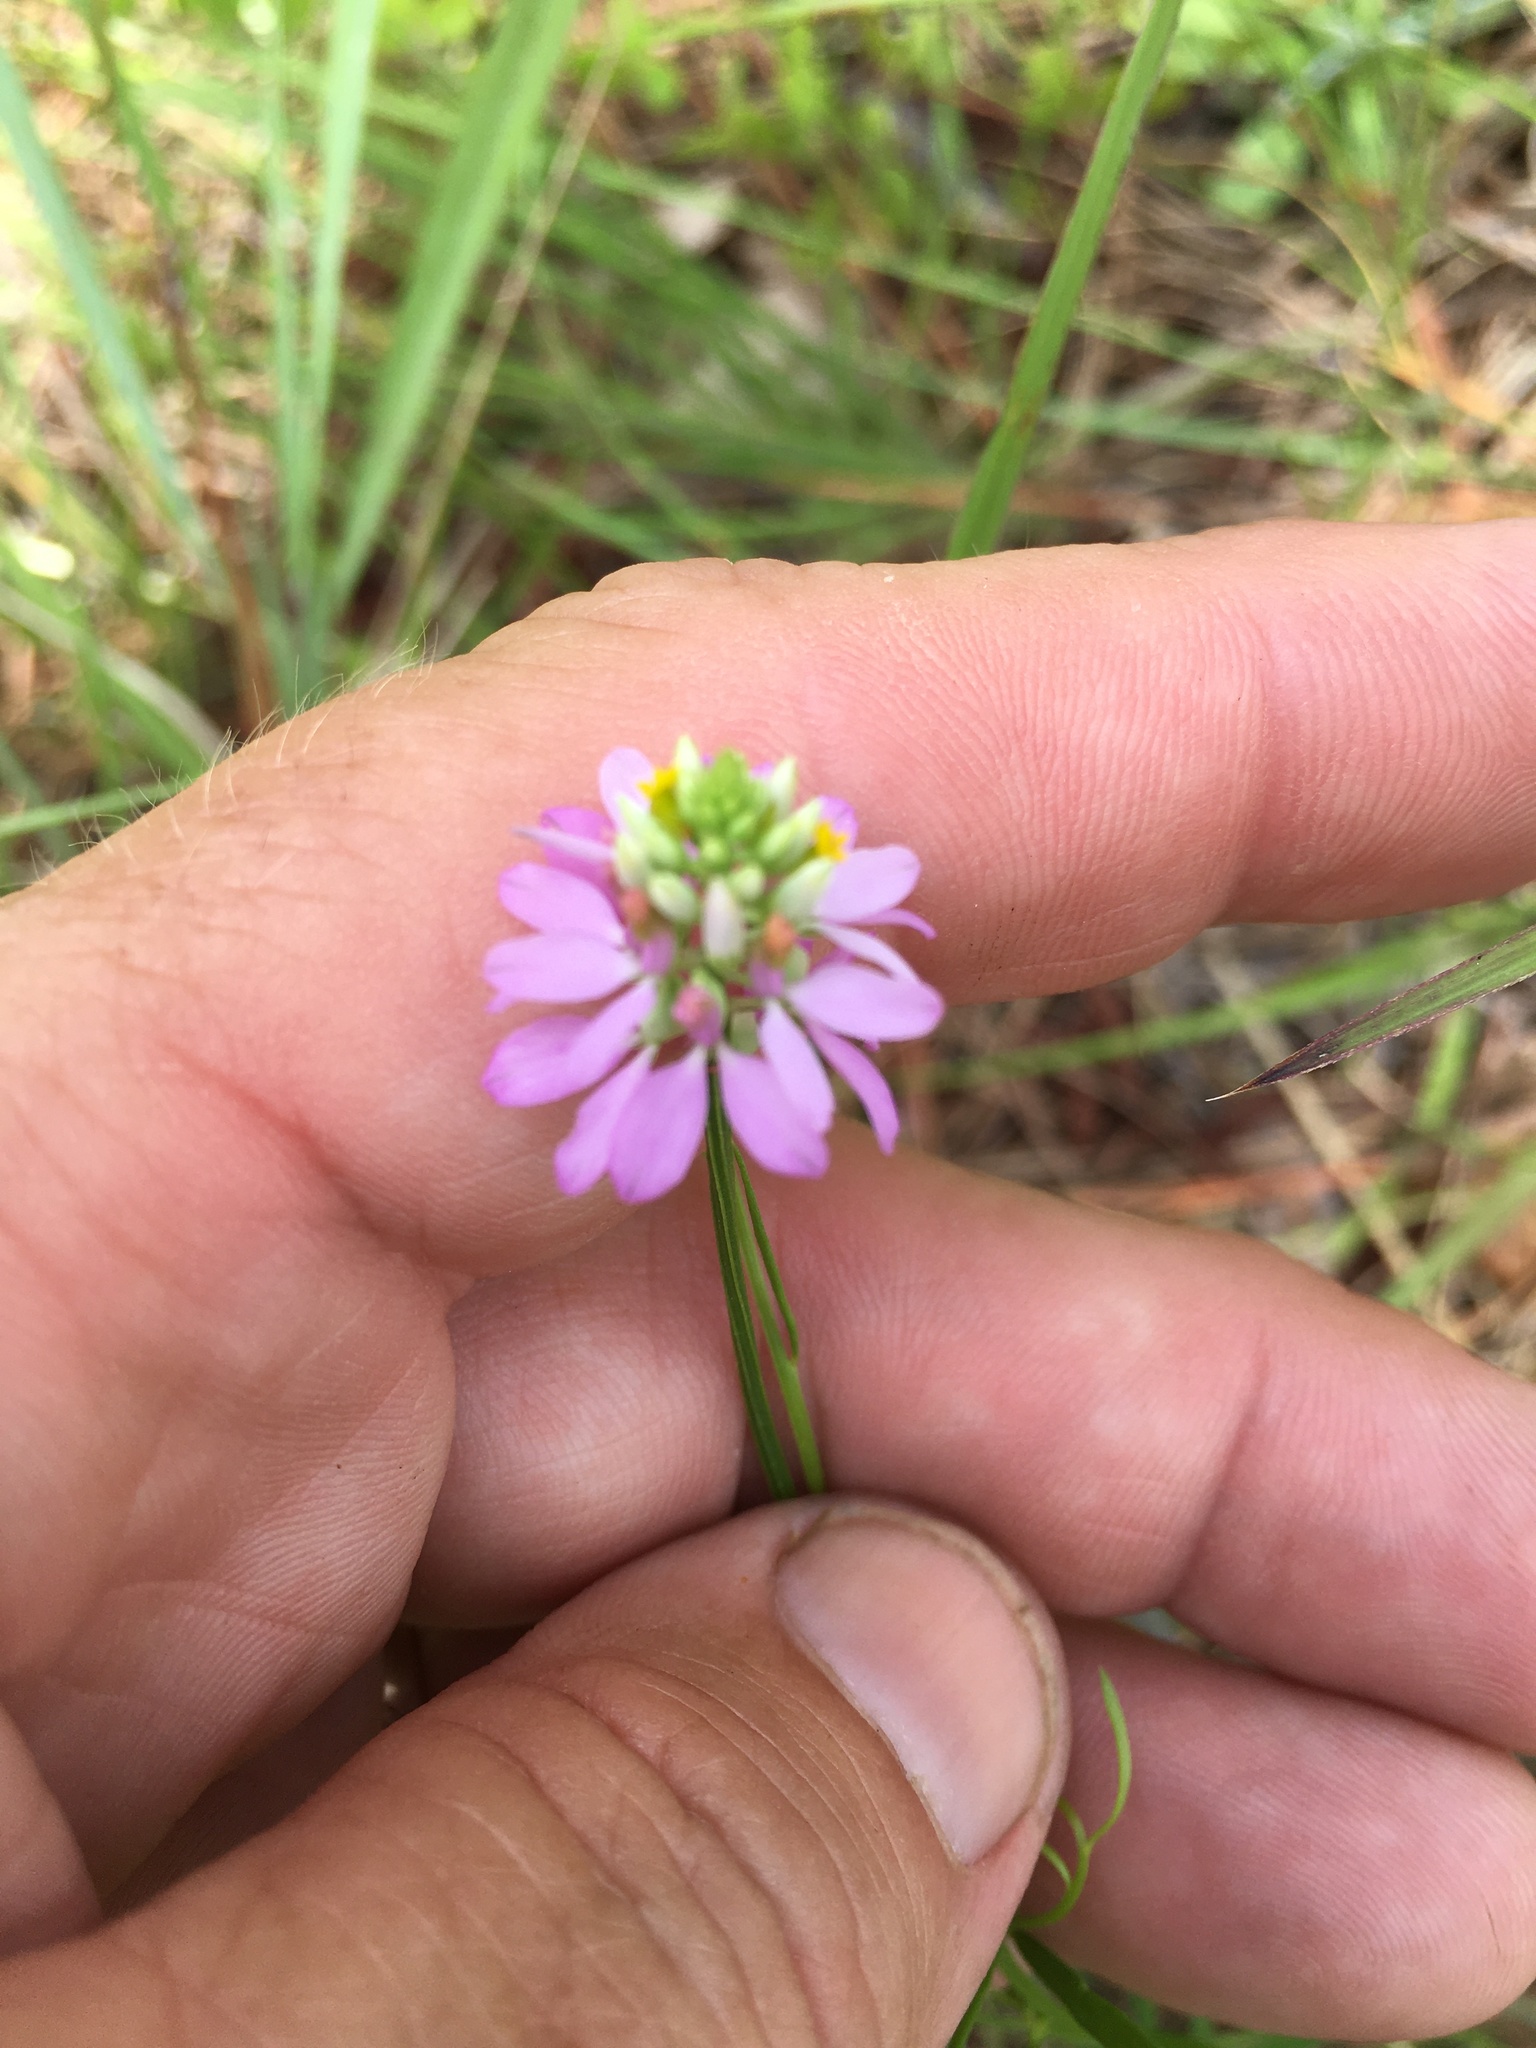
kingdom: Plantae
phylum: Tracheophyta
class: Magnoliopsida
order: Fabales
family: Polygalaceae
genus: Polygala
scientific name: Polygala curtissii
